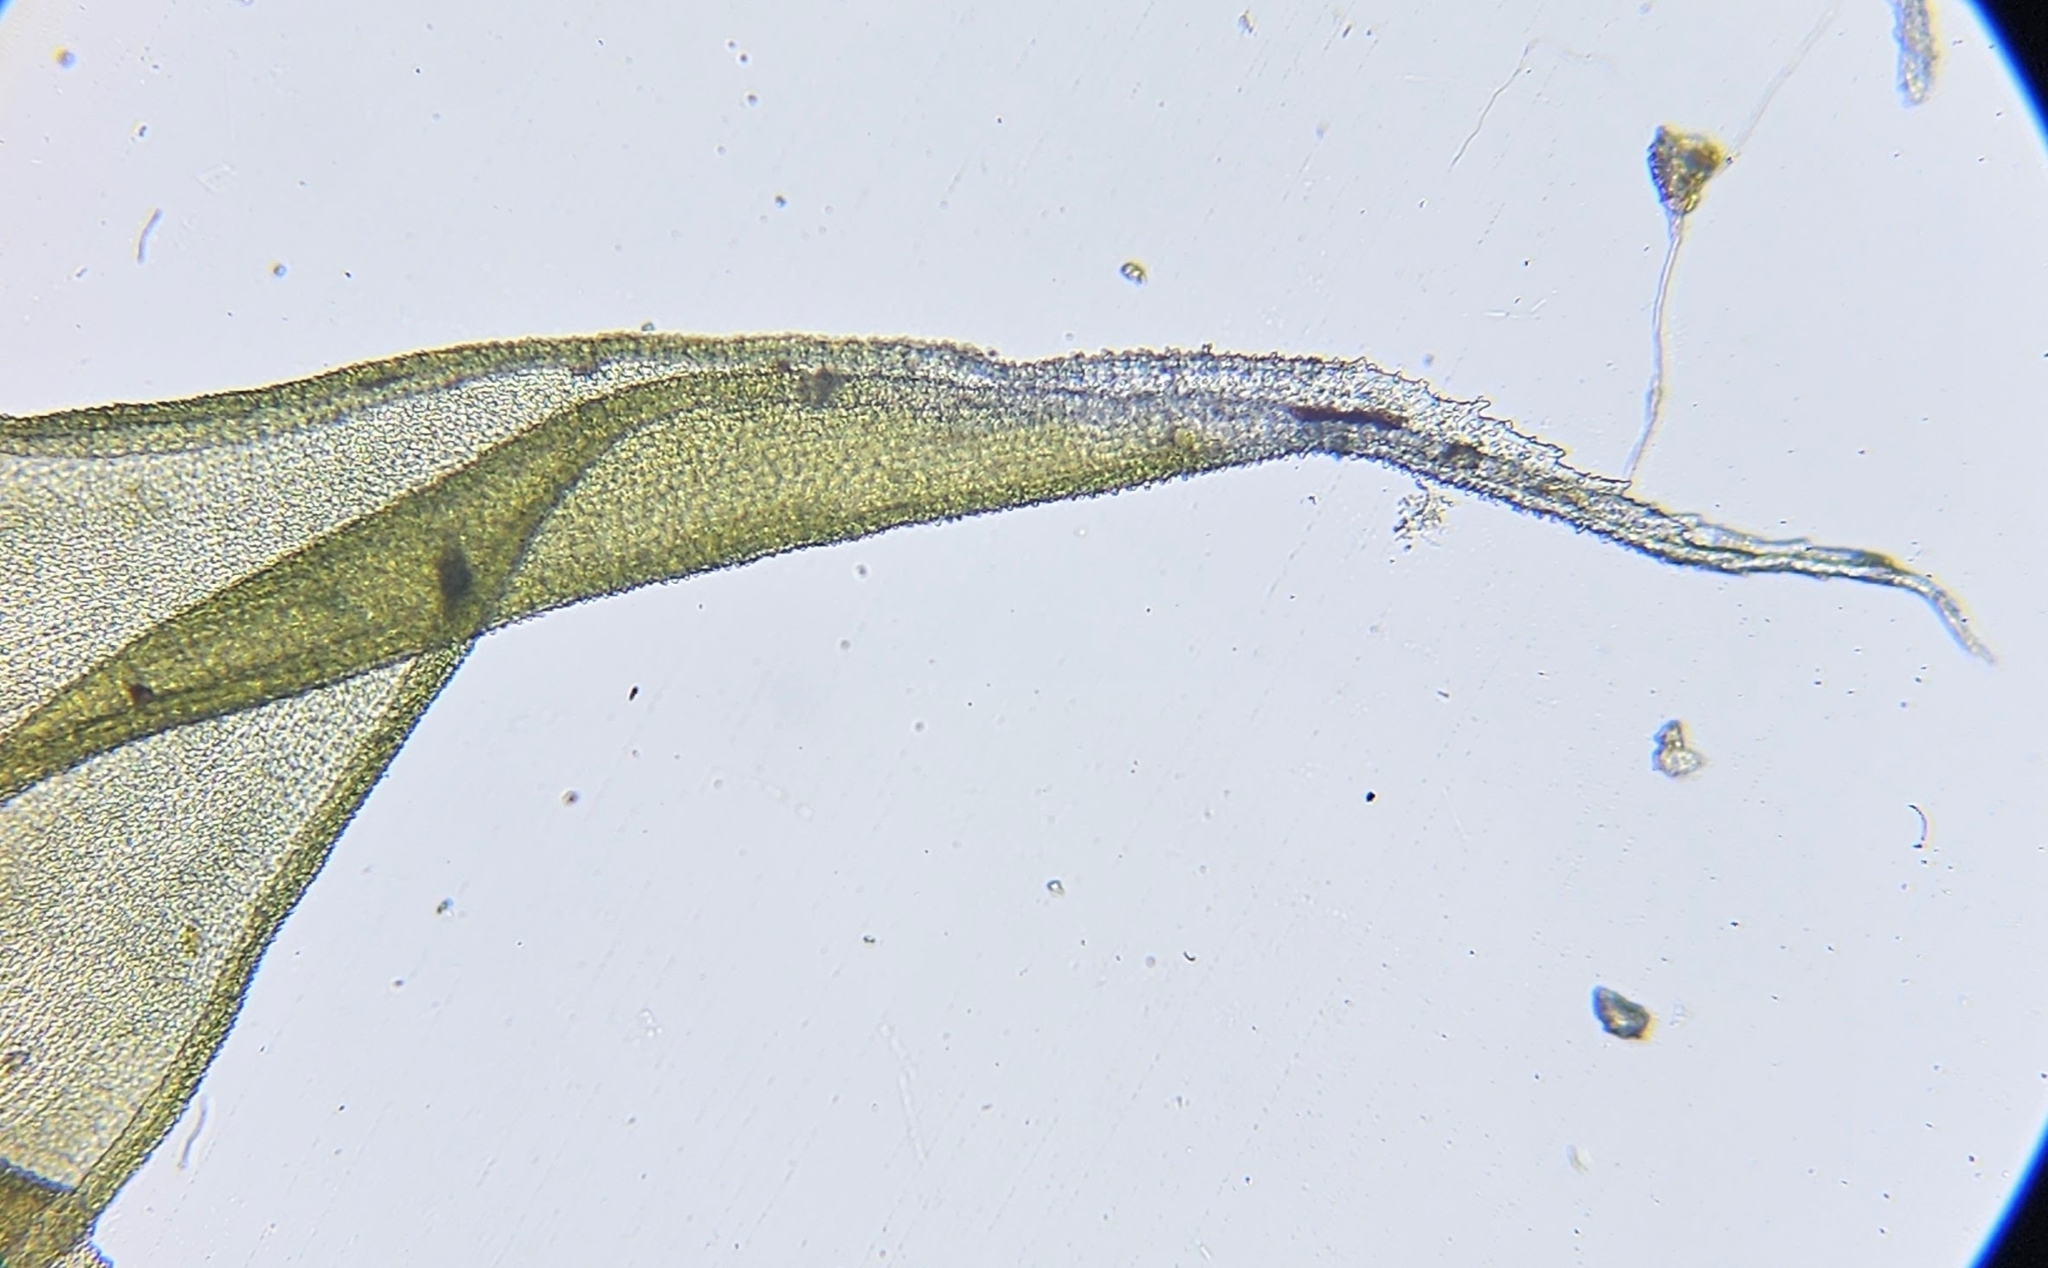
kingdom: Plantae
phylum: Bryophyta
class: Bryopsida
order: Grimmiales
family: Grimmiaceae
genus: Niphotrichum
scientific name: Niphotrichum elongatum
